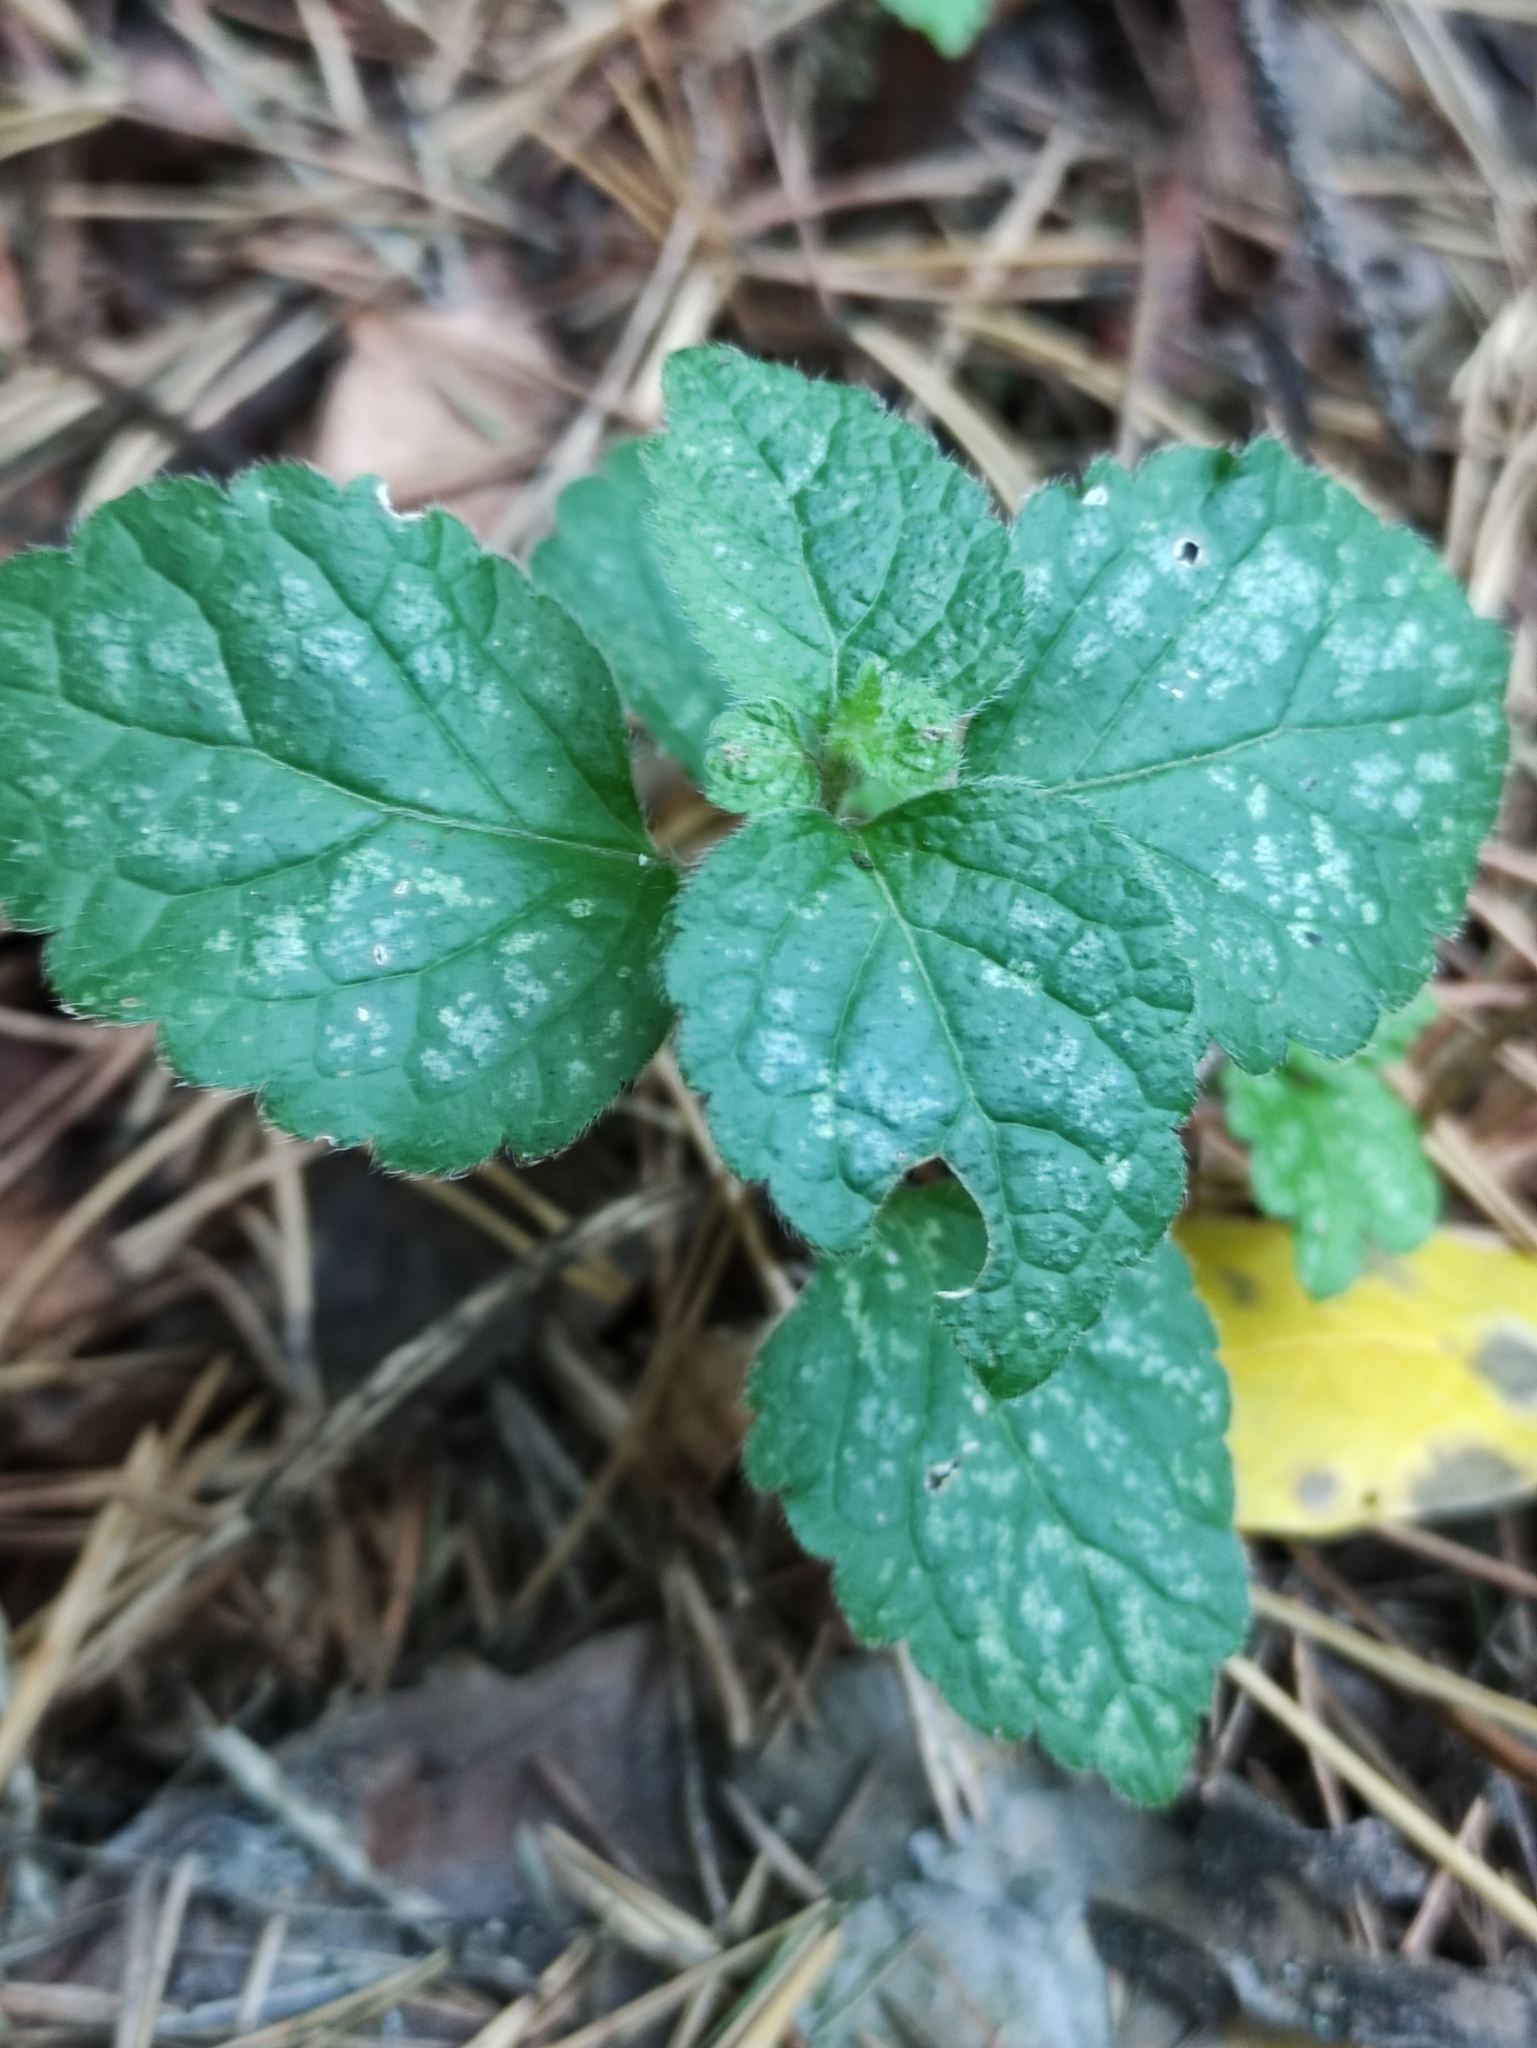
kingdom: Plantae
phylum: Tracheophyta
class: Magnoliopsida
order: Lamiales
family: Lamiaceae
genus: Lamium
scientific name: Lamium galeobdolon
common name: Yellow archangel
